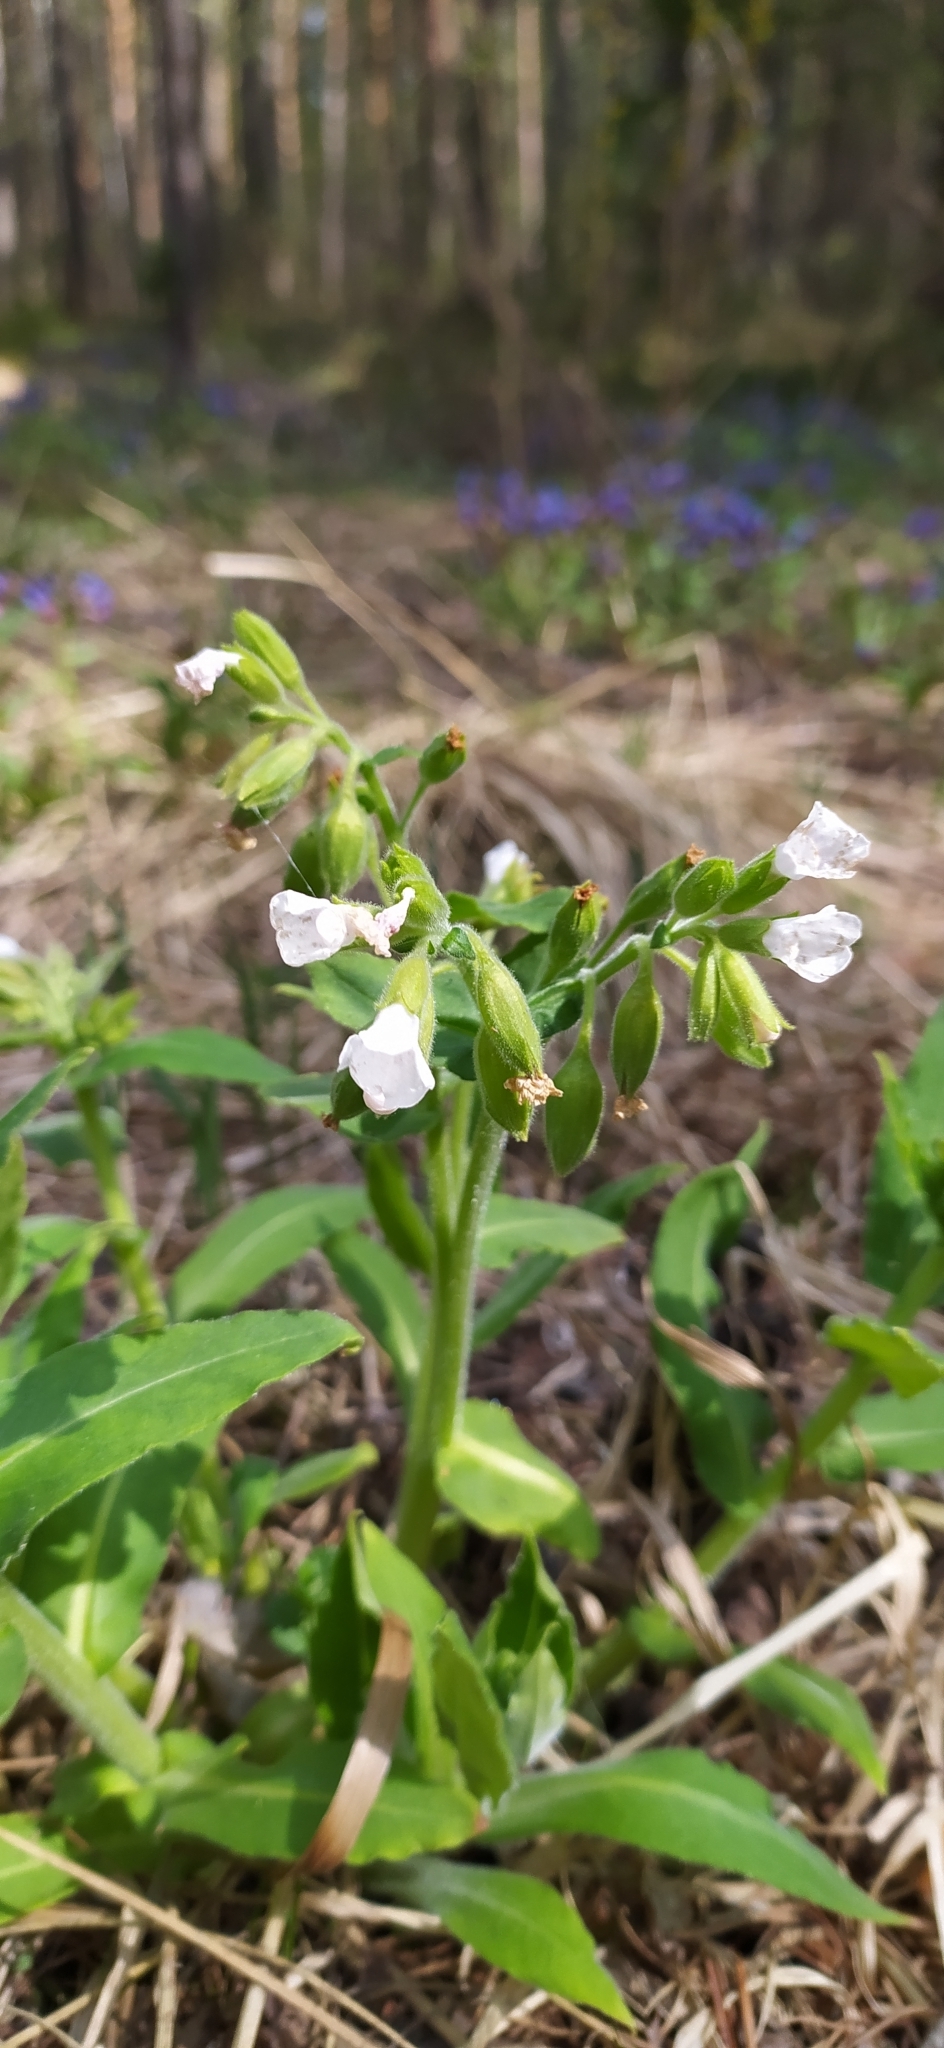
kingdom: Plantae
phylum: Tracheophyta
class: Magnoliopsida
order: Boraginales
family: Boraginaceae
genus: Pulmonaria
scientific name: Pulmonaria mollis
